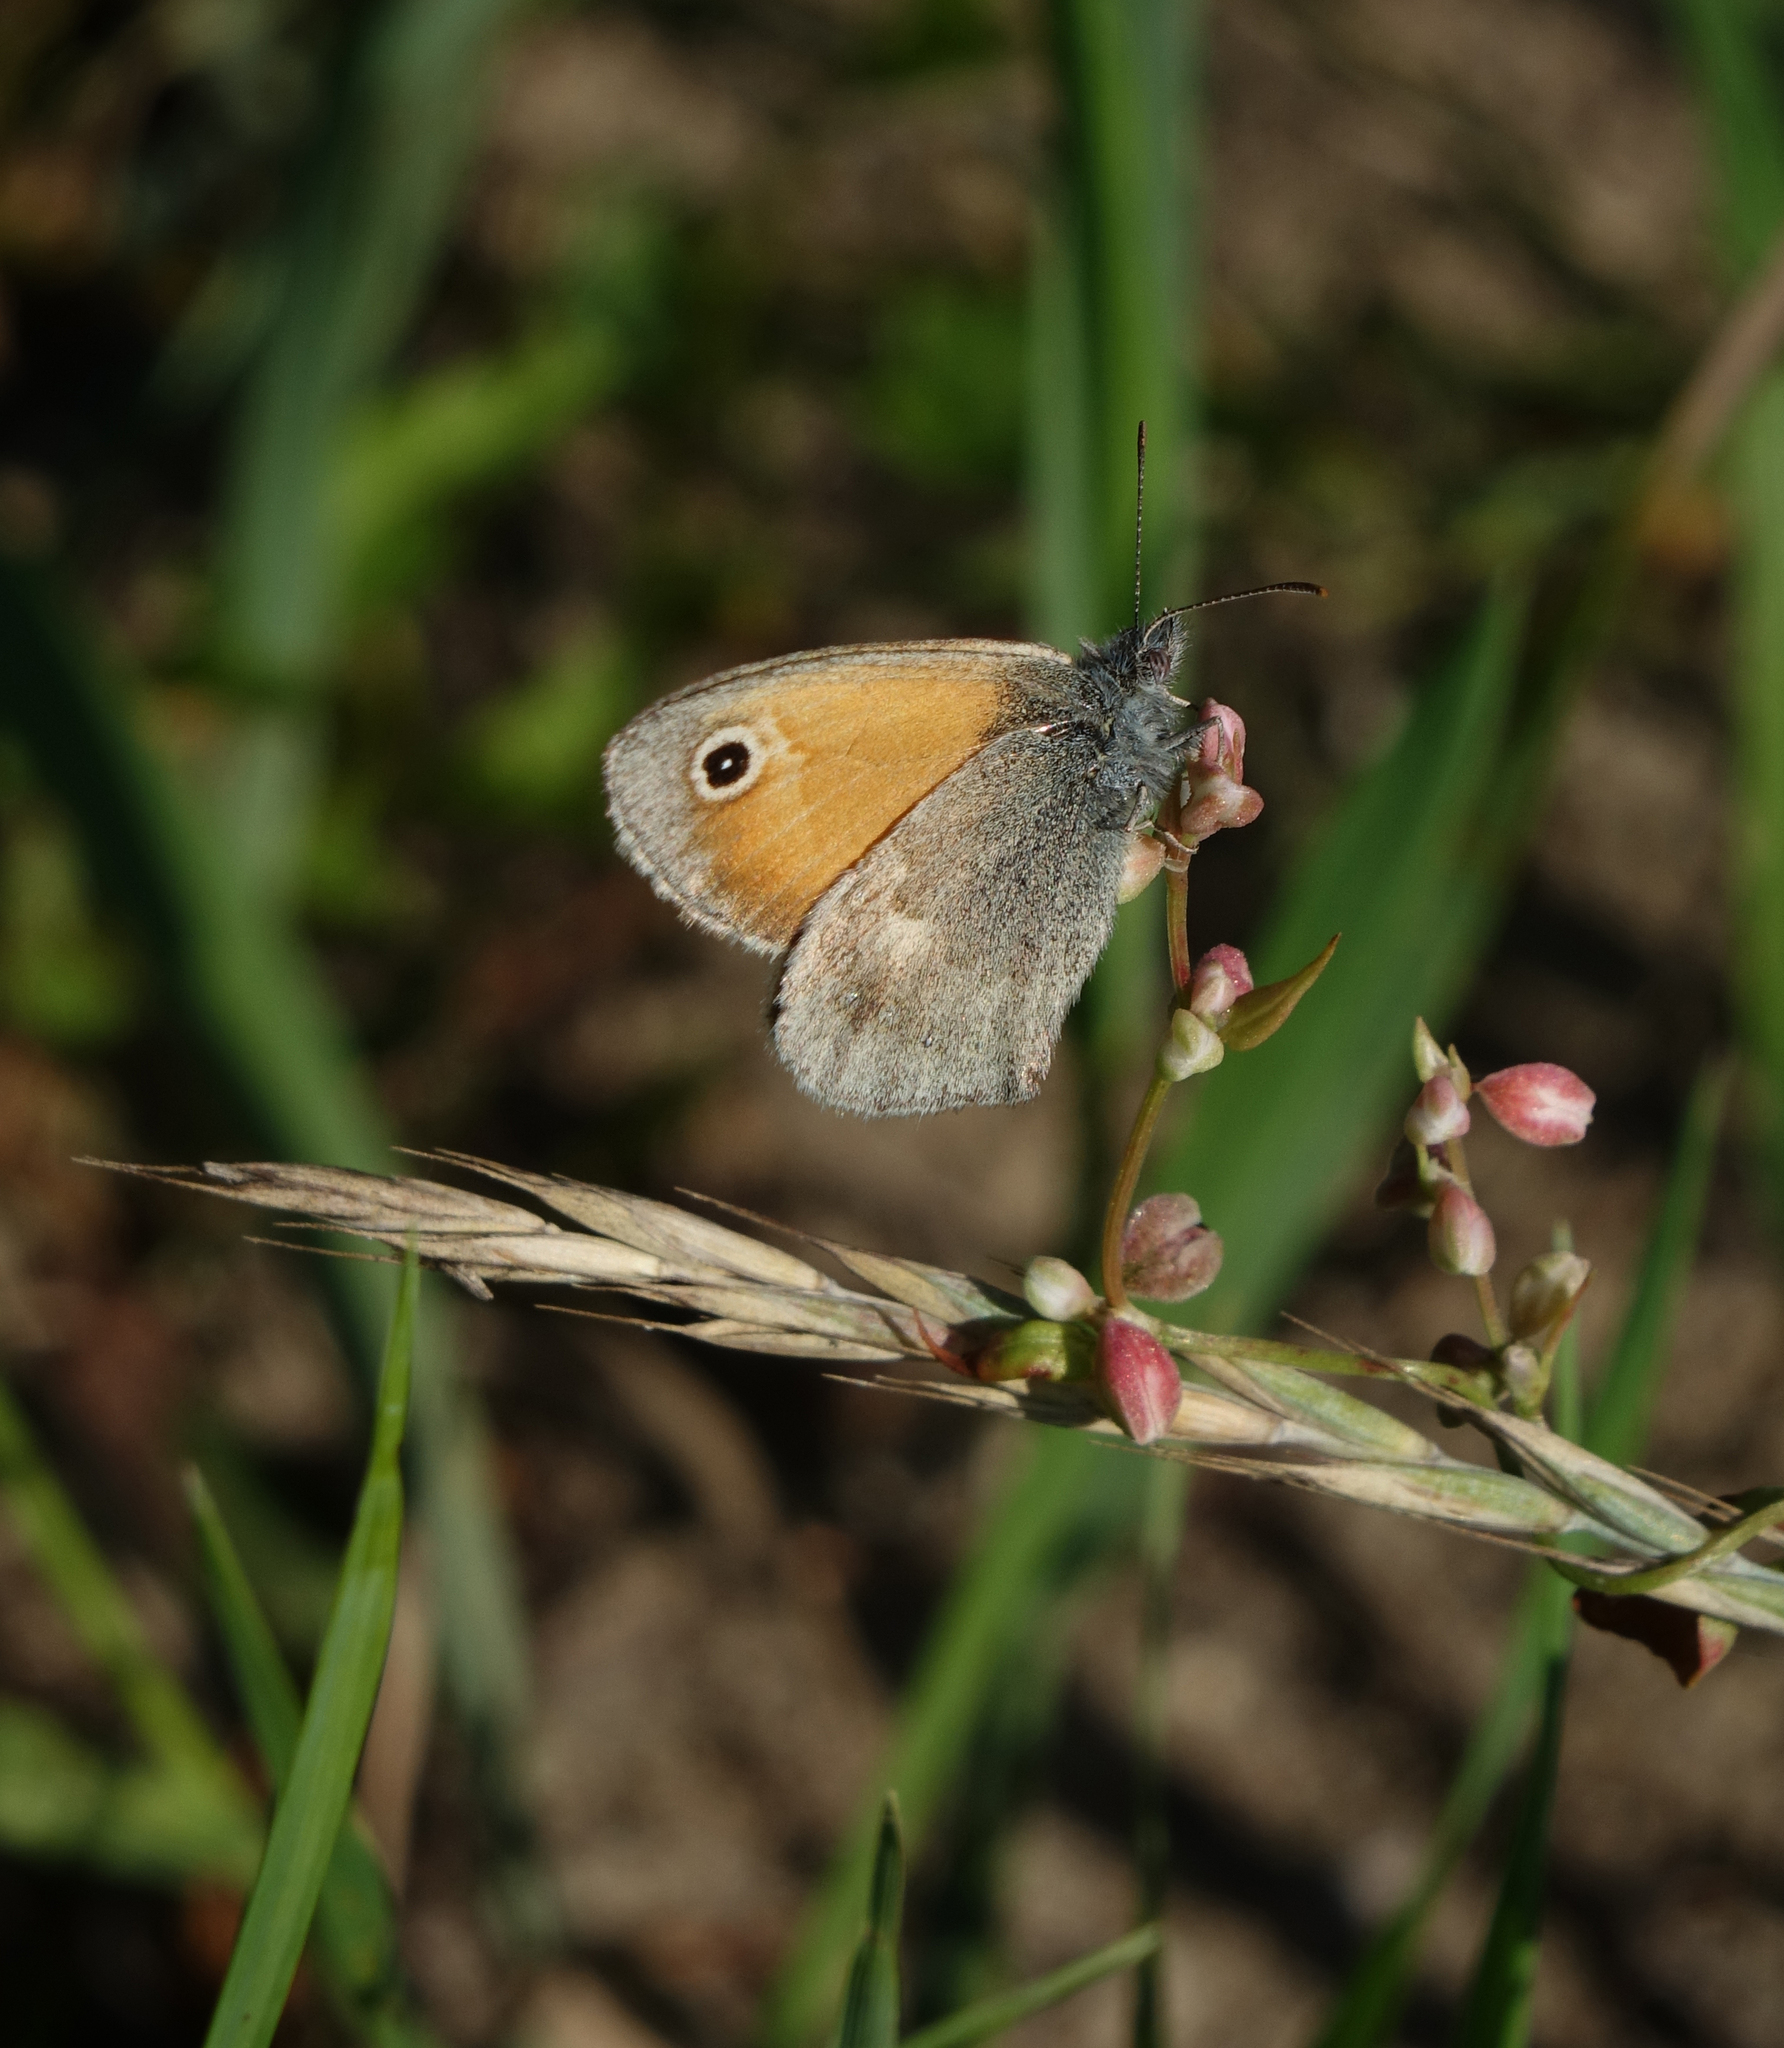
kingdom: Animalia
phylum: Arthropoda
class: Insecta
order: Lepidoptera
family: Nymphalidae
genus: Coenonympha
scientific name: Coenonympha pamphilus
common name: Small heath
